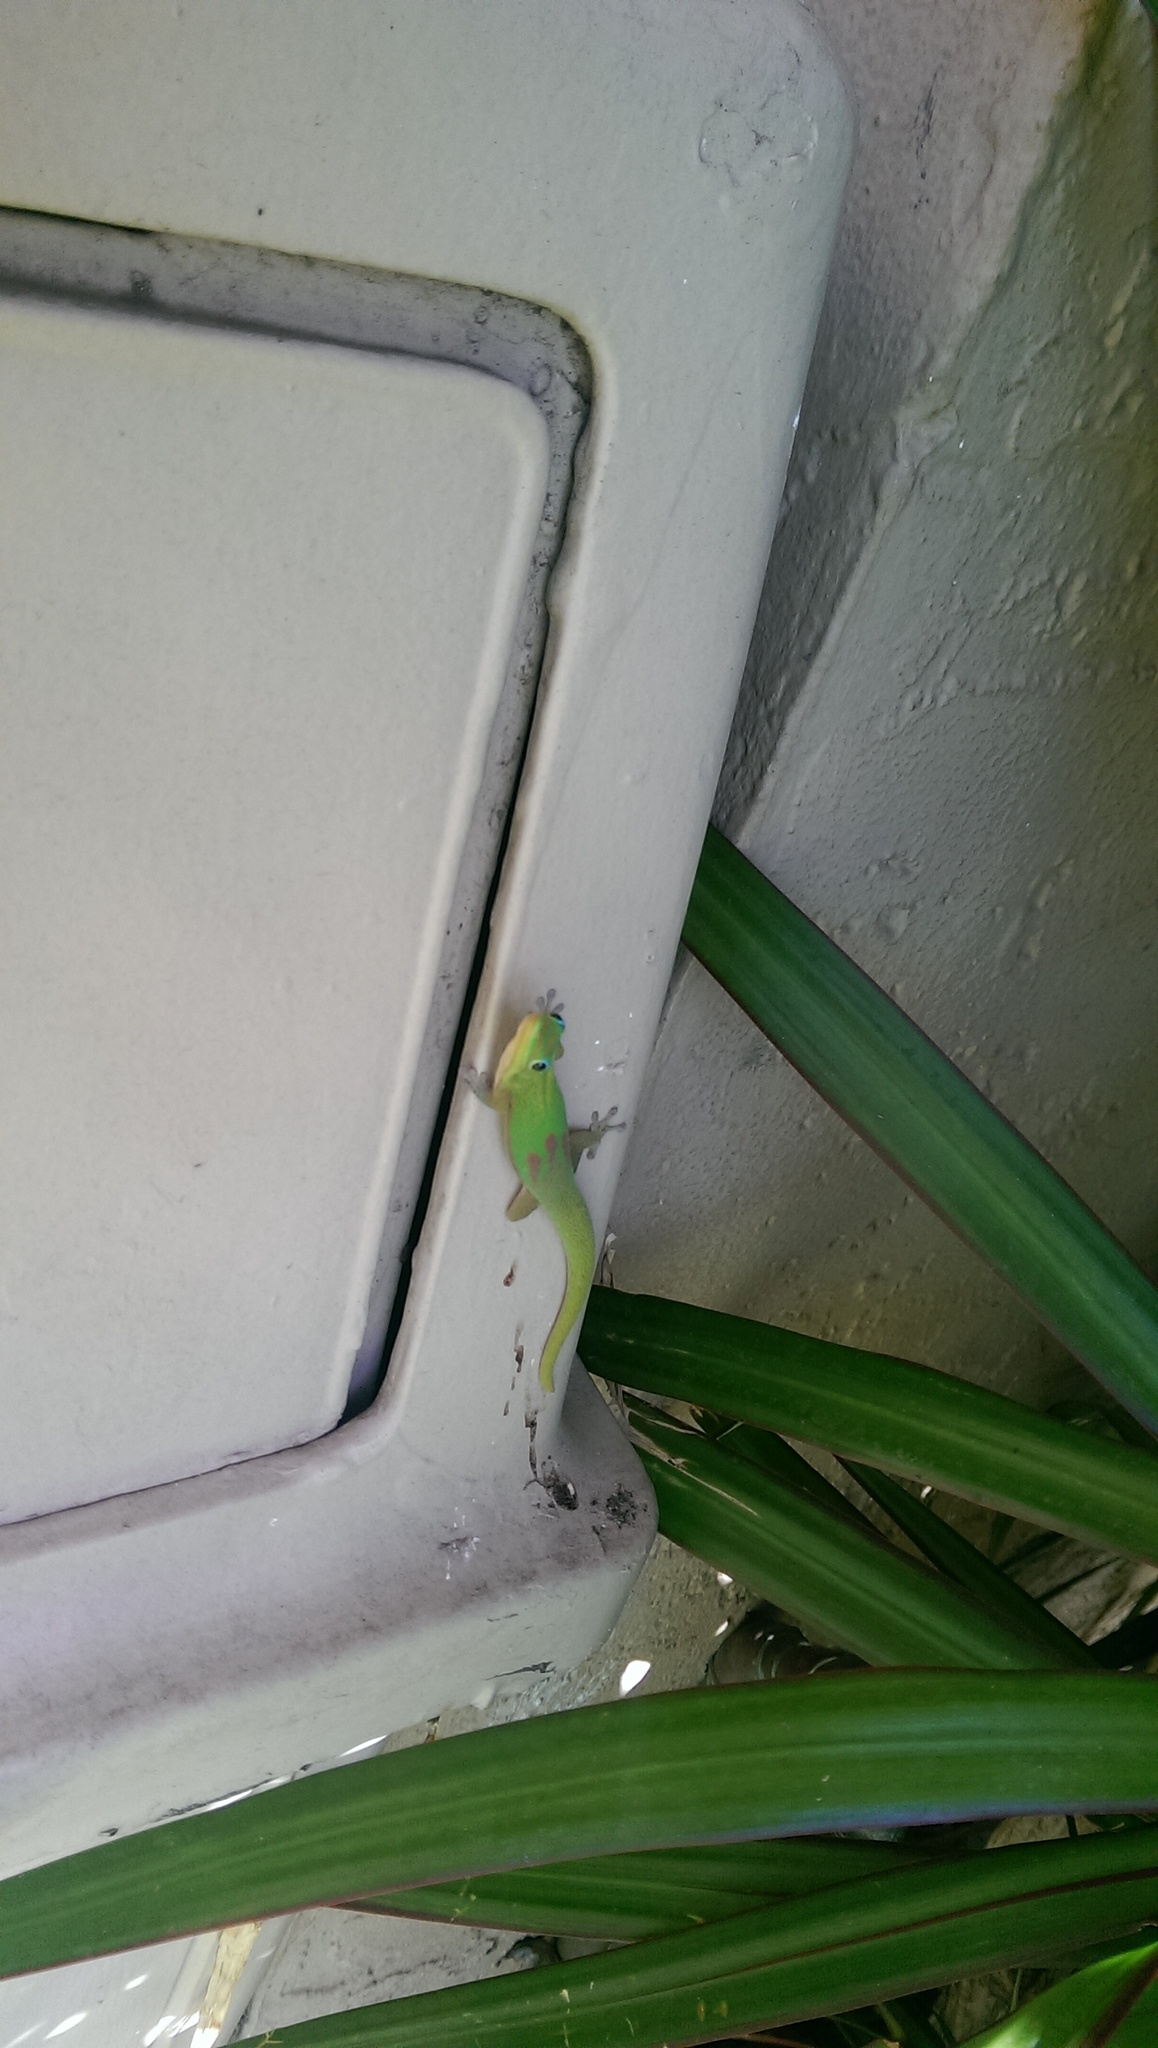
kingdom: Animalia
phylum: Chordata
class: Squamata
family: Gekkonidae
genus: Phelsuma
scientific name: Phelsuma laticauda
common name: Gold dust day gecko
